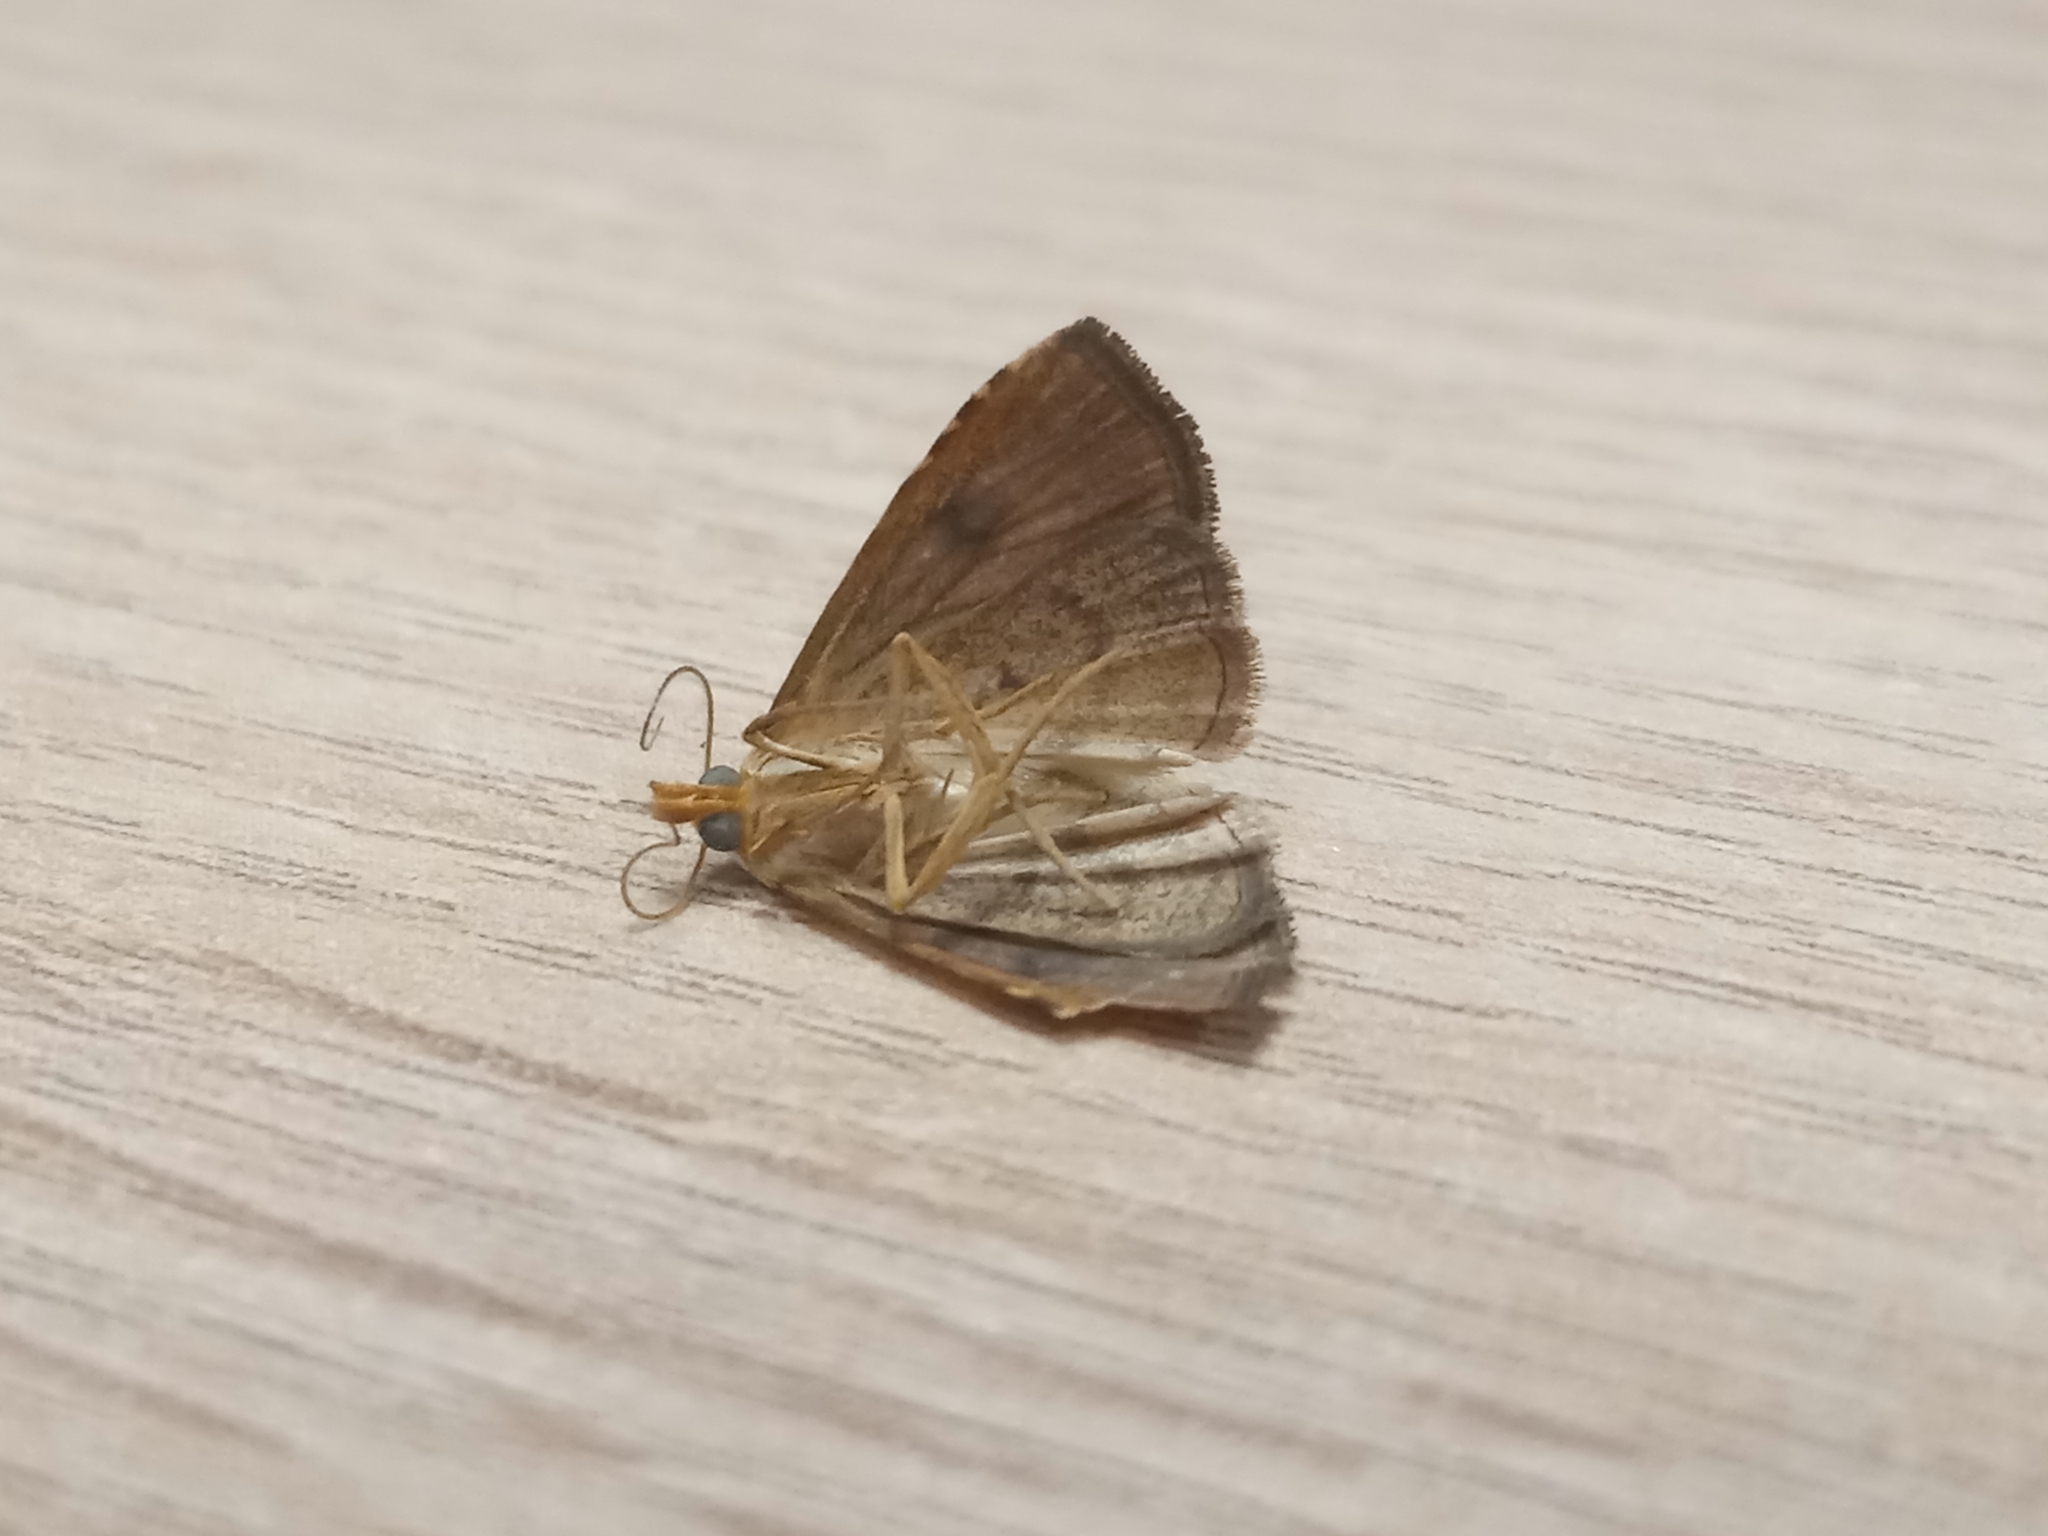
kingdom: Animalia
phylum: Arthropoda
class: Insecta
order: Lepidoptera
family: Erebidae
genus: Rivula
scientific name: Rivula sericealis
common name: Straw dot
